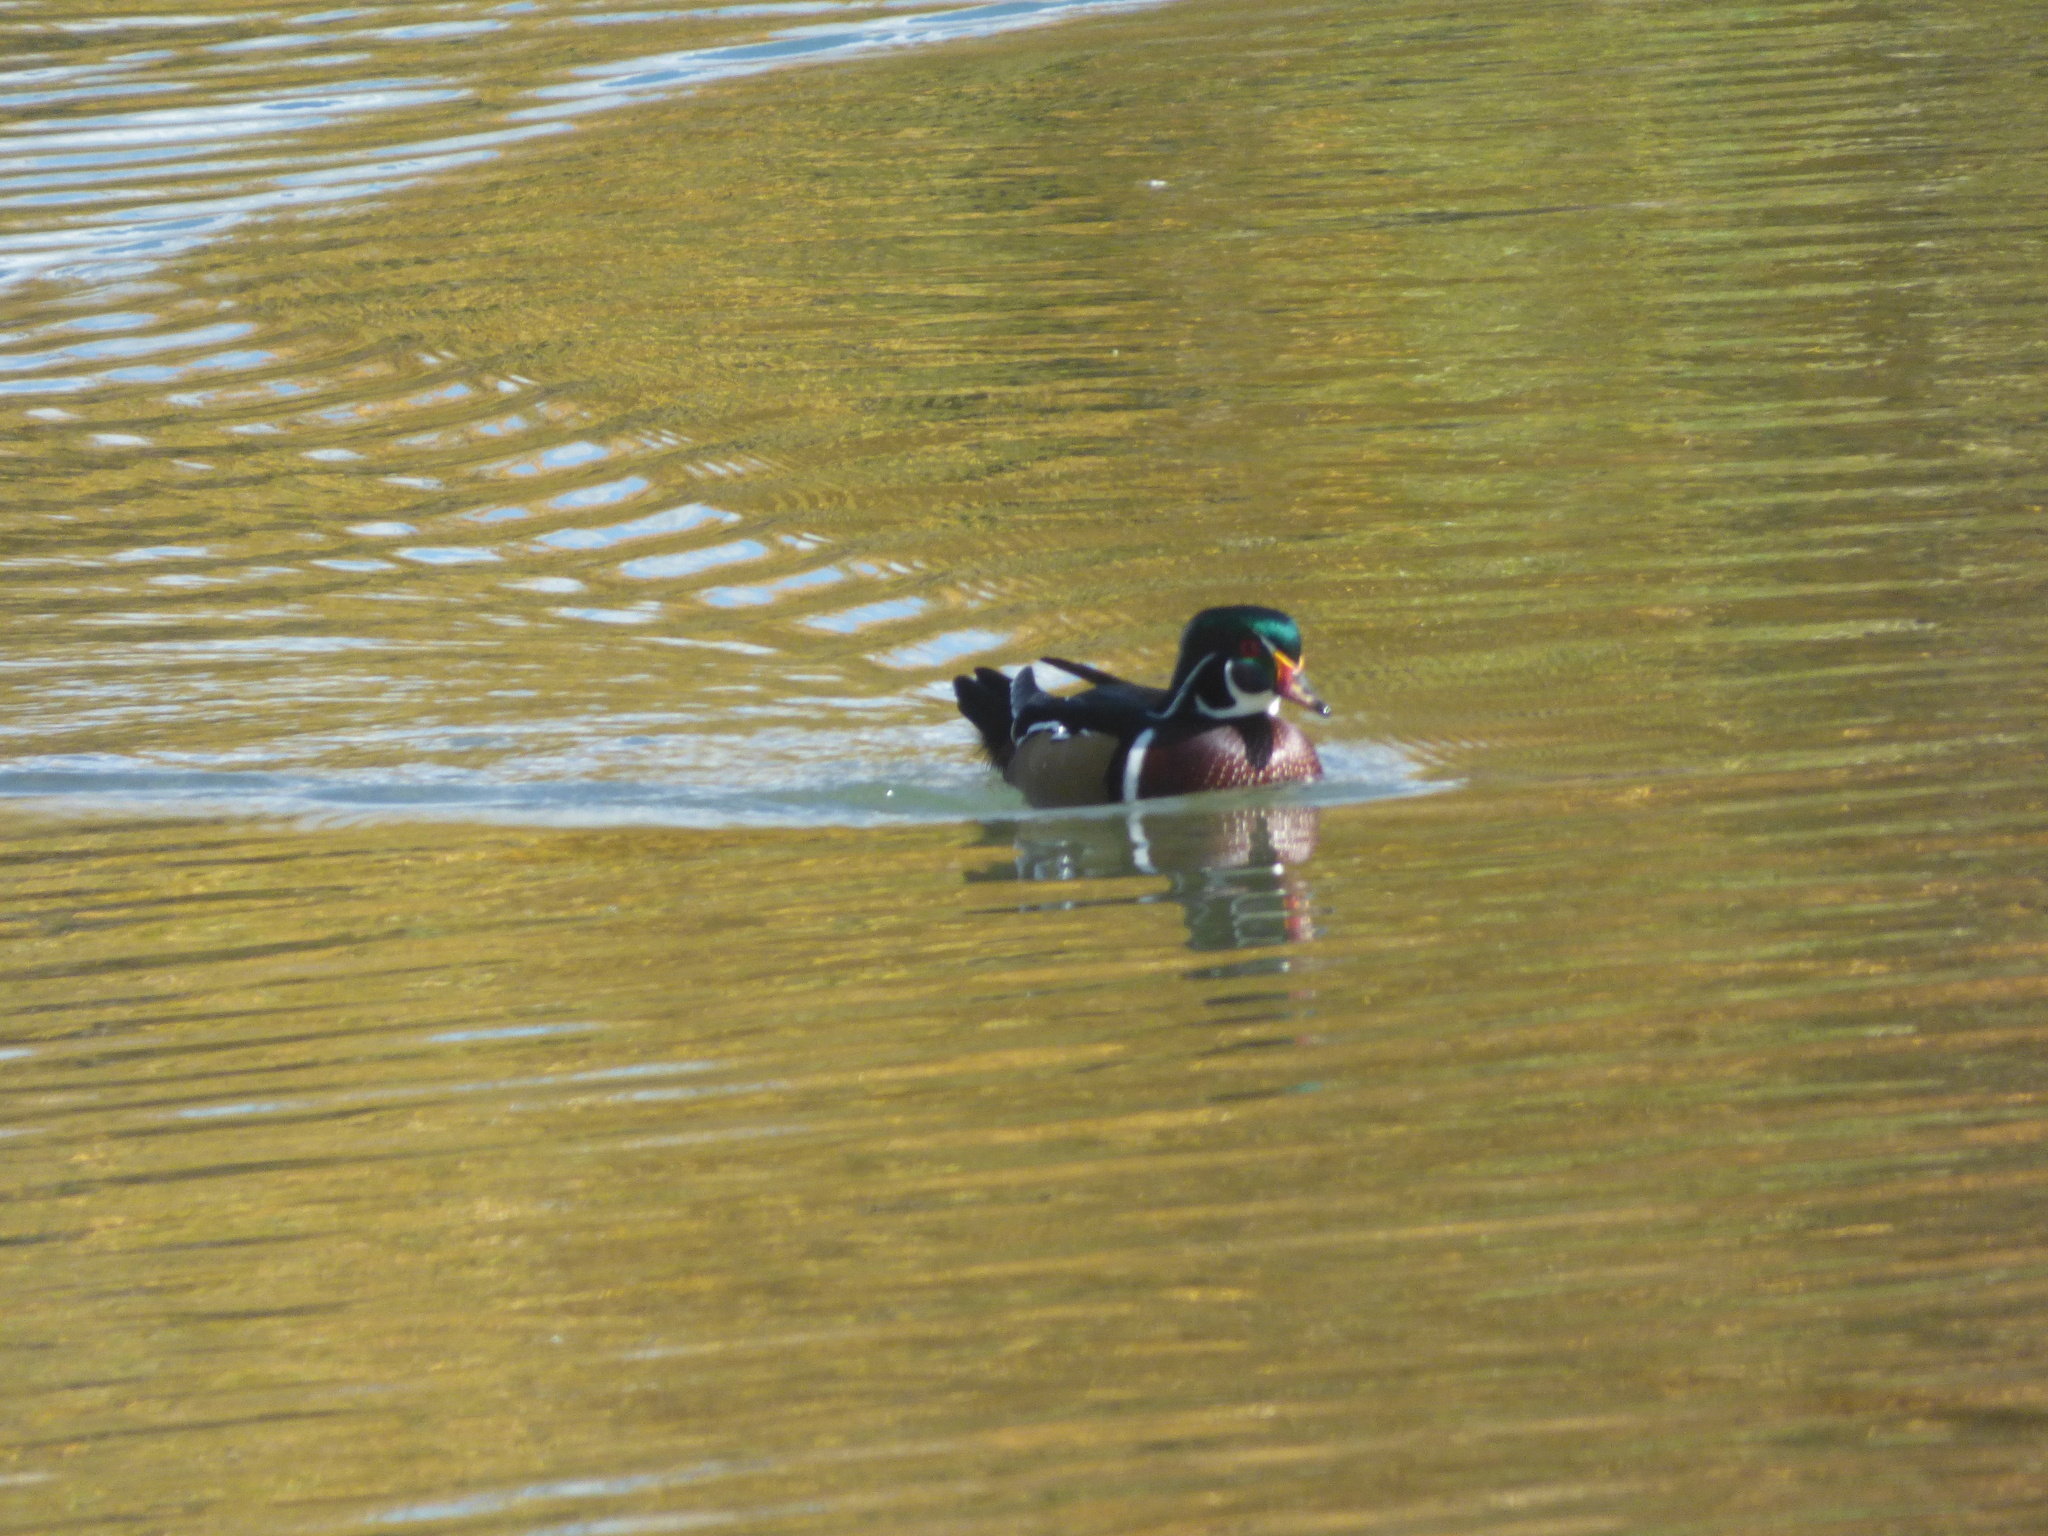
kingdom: Animalia
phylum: Chordata
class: Aves
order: Anseriformes
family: Anatidae
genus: Aix
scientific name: Aix sponsa
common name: Wood duck
